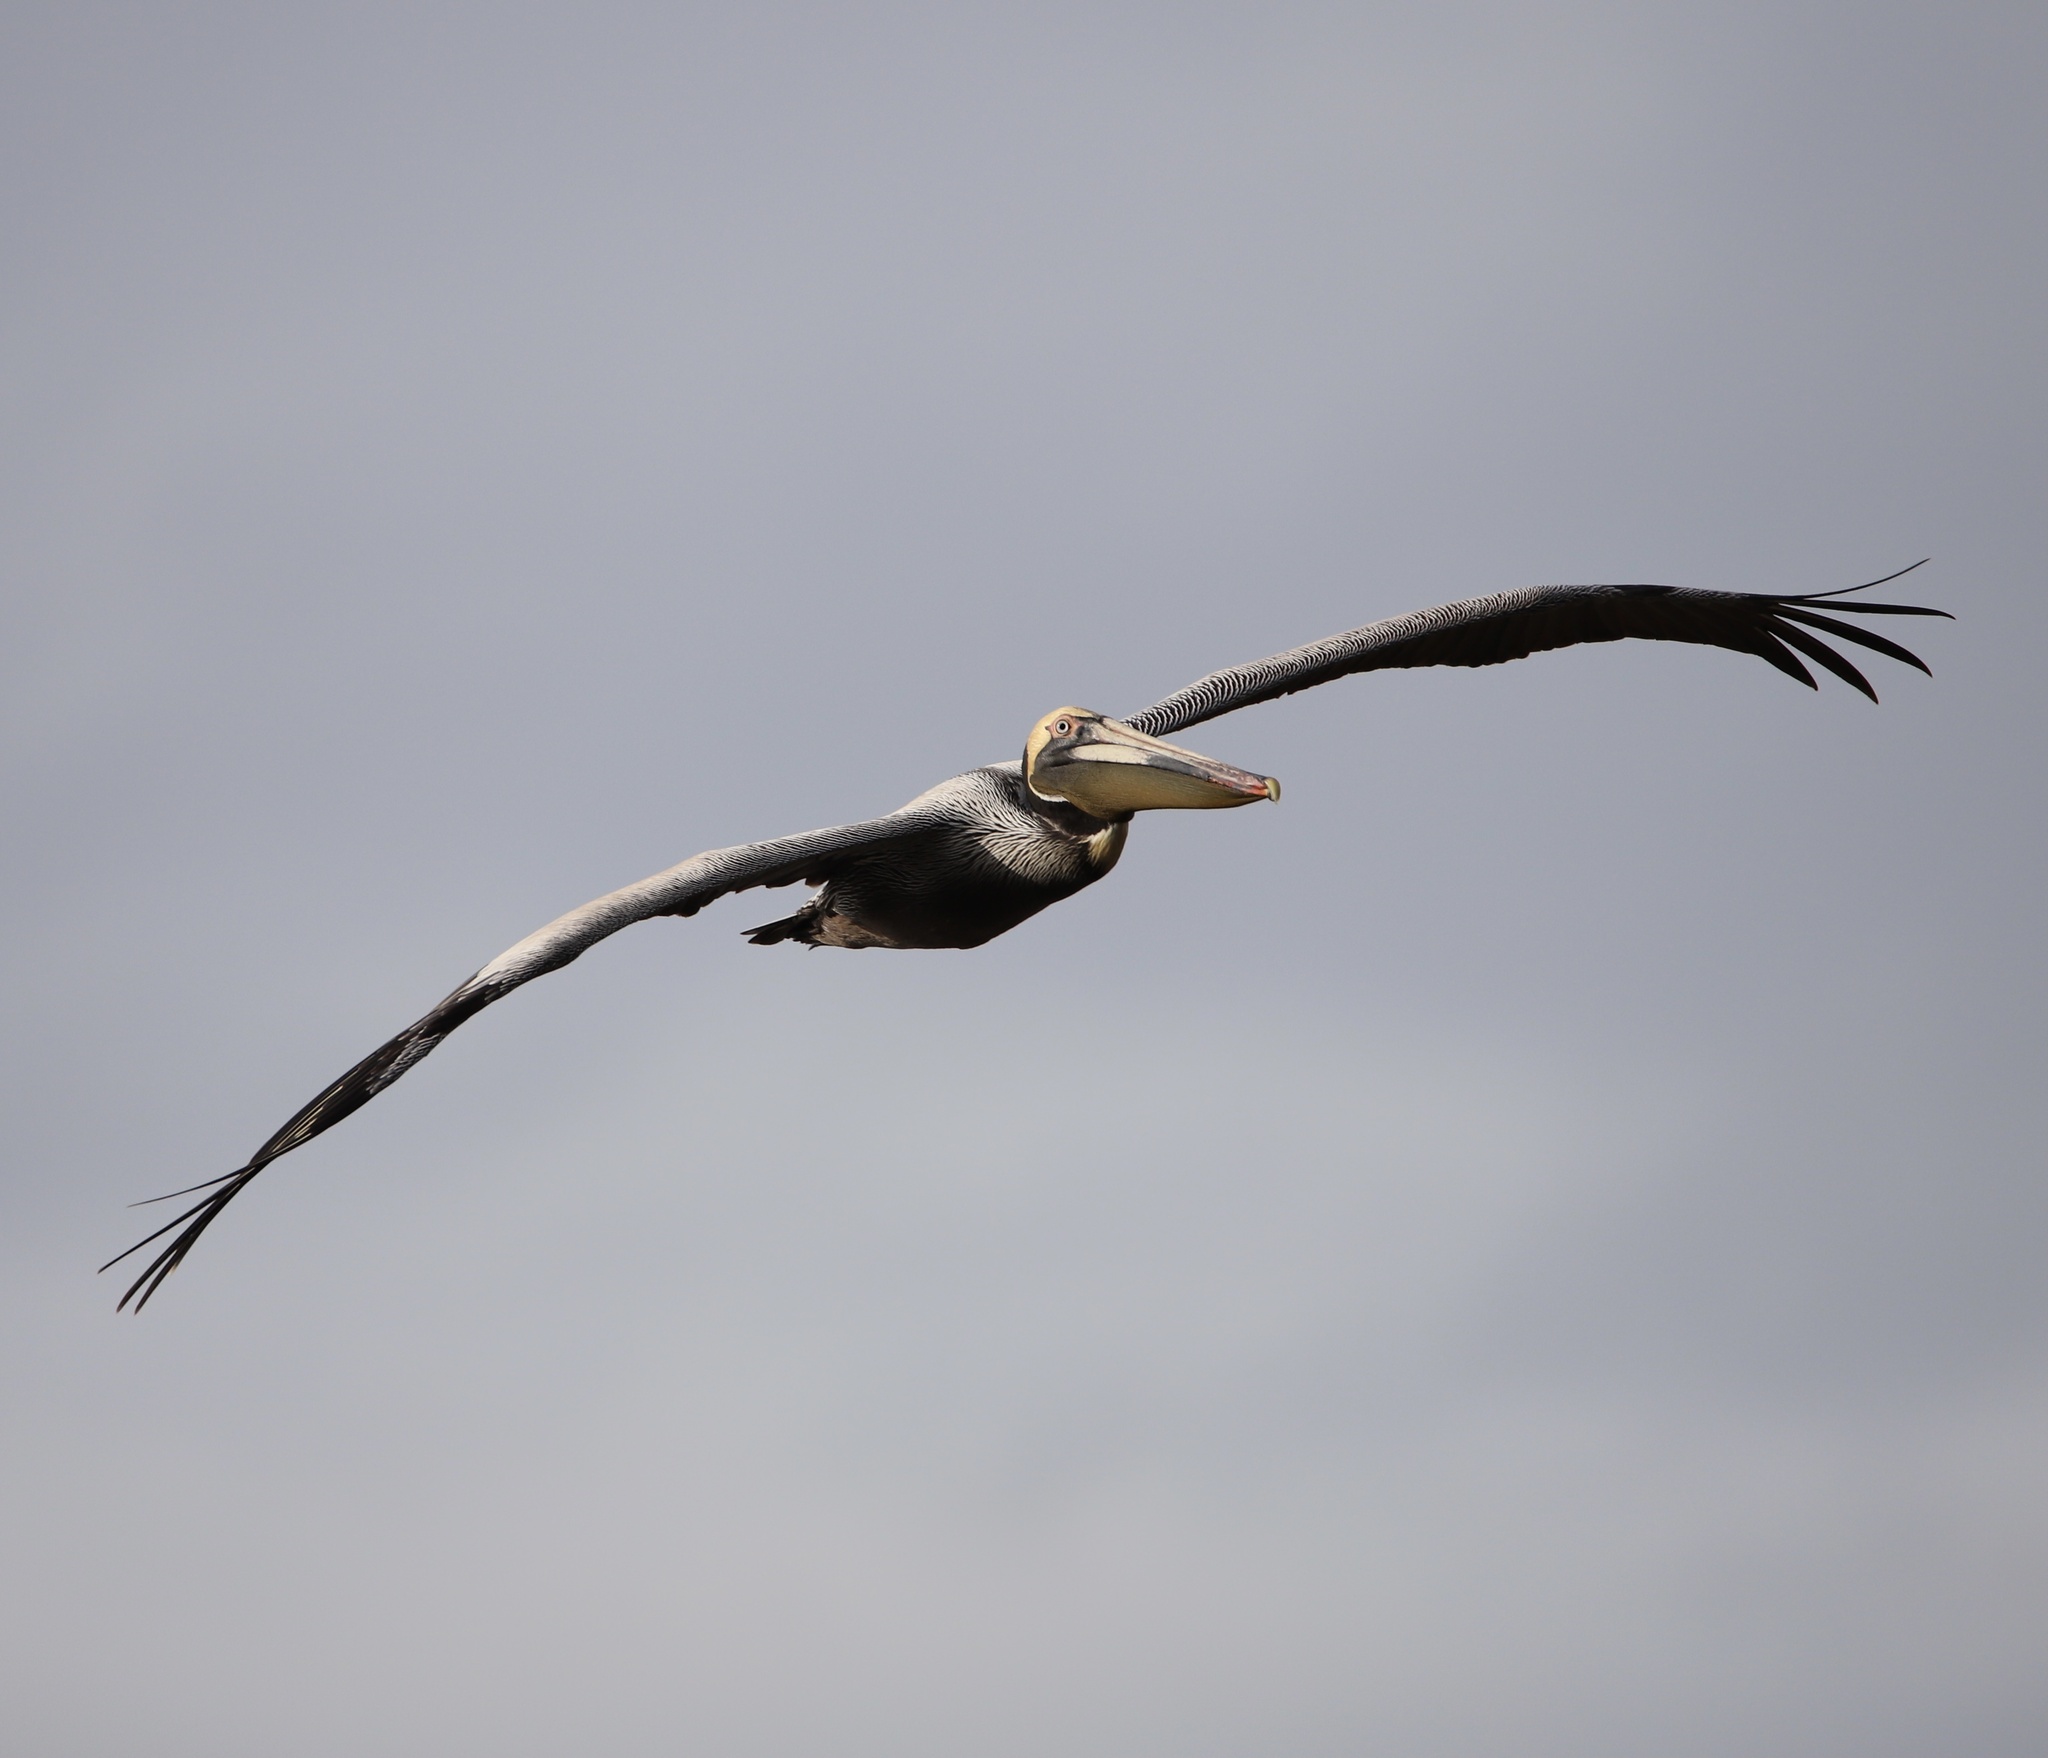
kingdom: Animalia
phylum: Chordata
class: Aves
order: Pelecaniformes
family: Pelecanidae
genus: Pelecanus
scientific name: Pelecanus occidentalis
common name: Brown pelican
